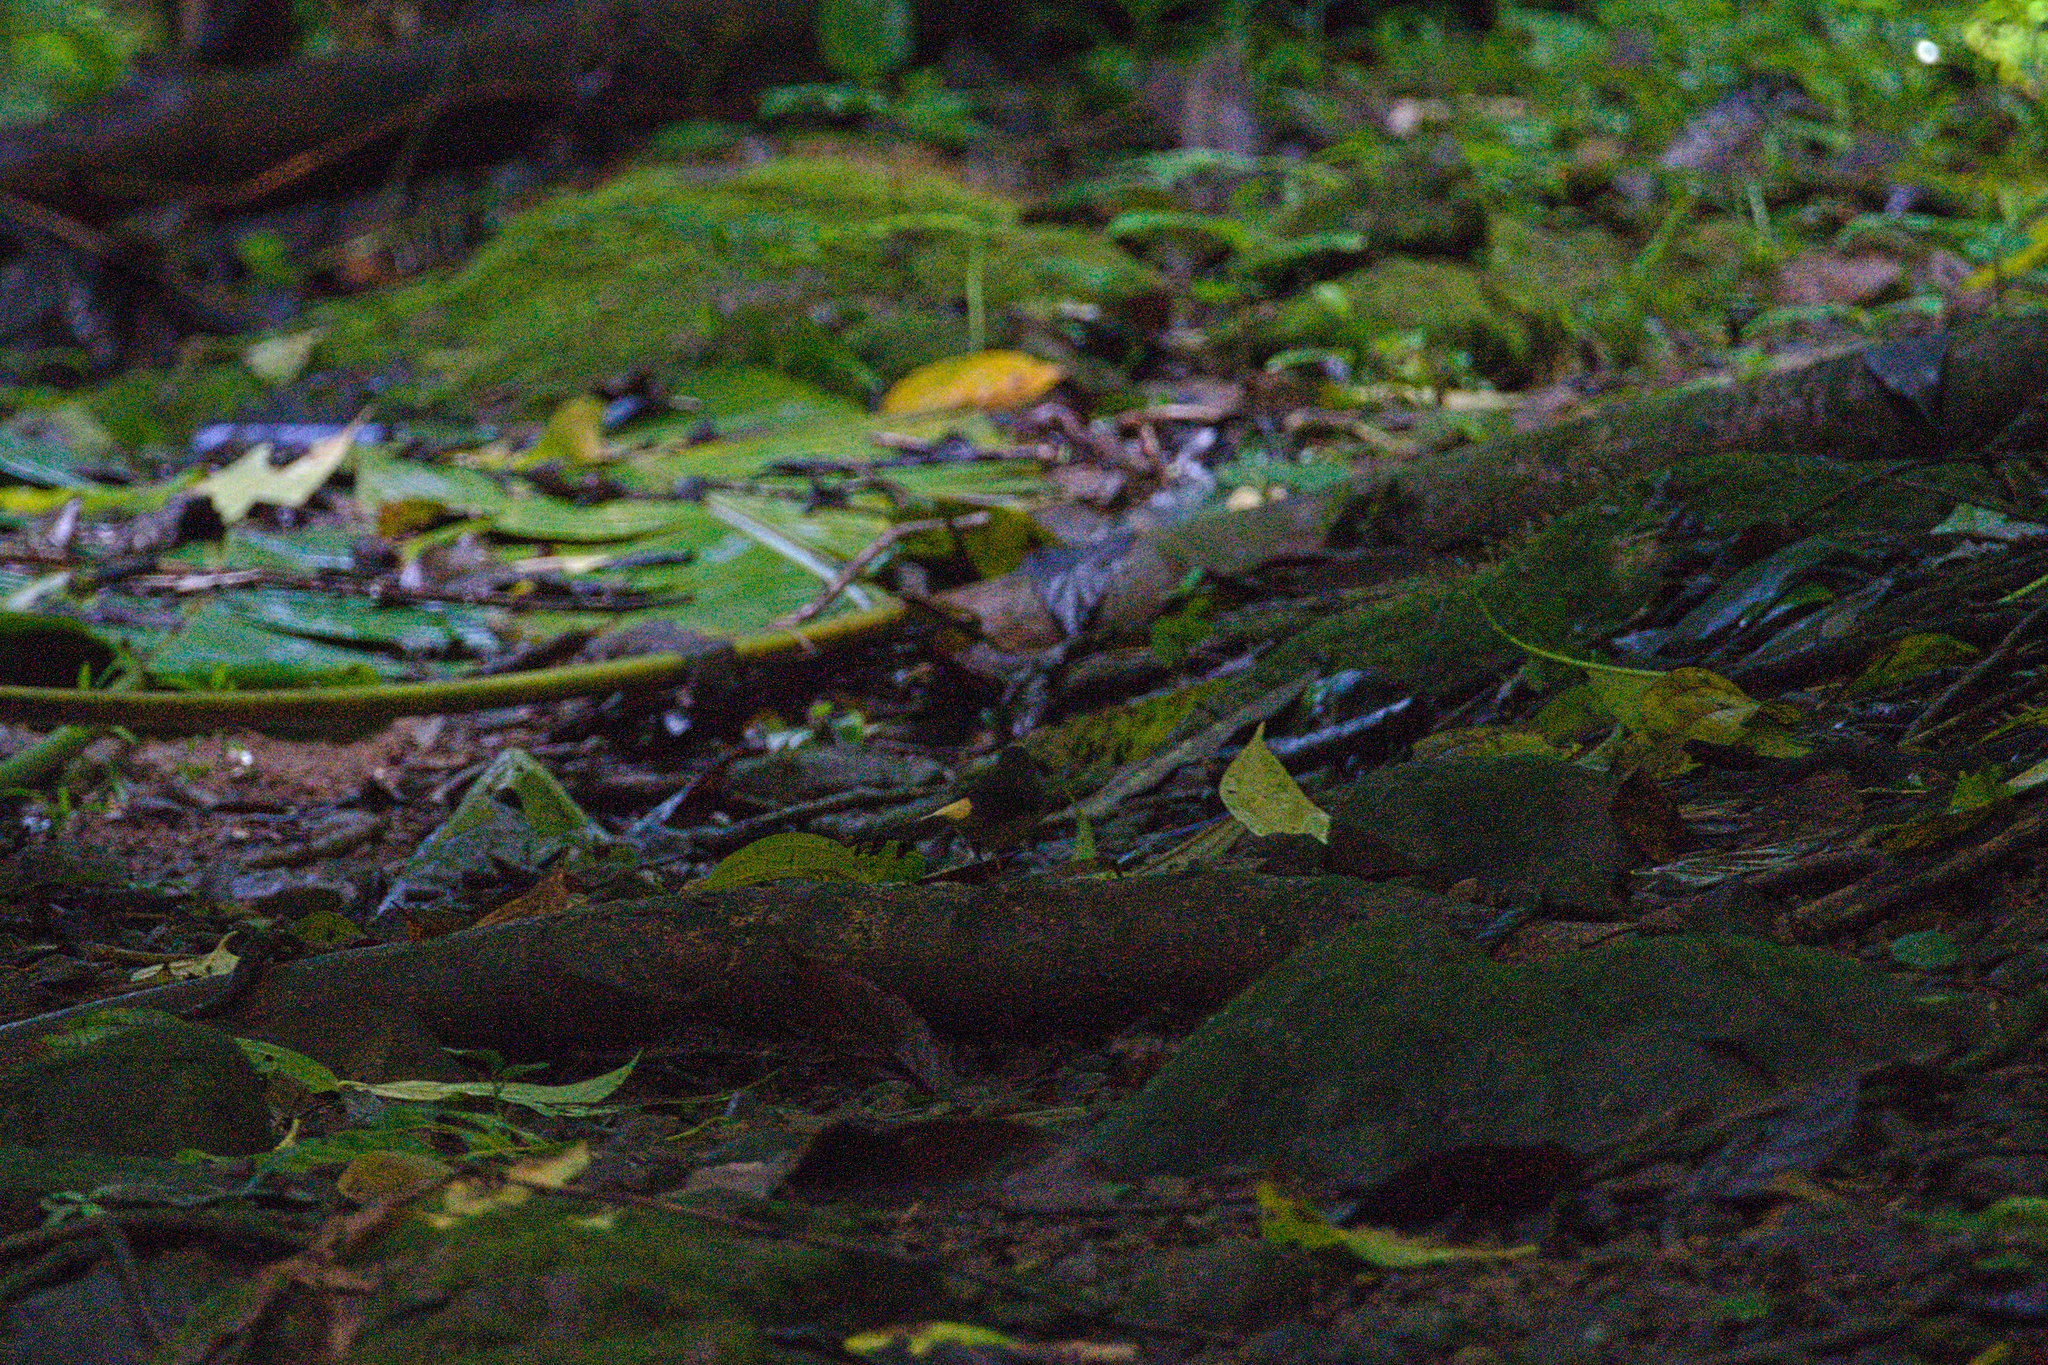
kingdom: Animalia
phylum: Chordata
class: Aves
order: Passeriformes
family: Parulidae
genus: Myiothlypis
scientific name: Myiothlypis fulvicauda
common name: Buff-rumped warbler
